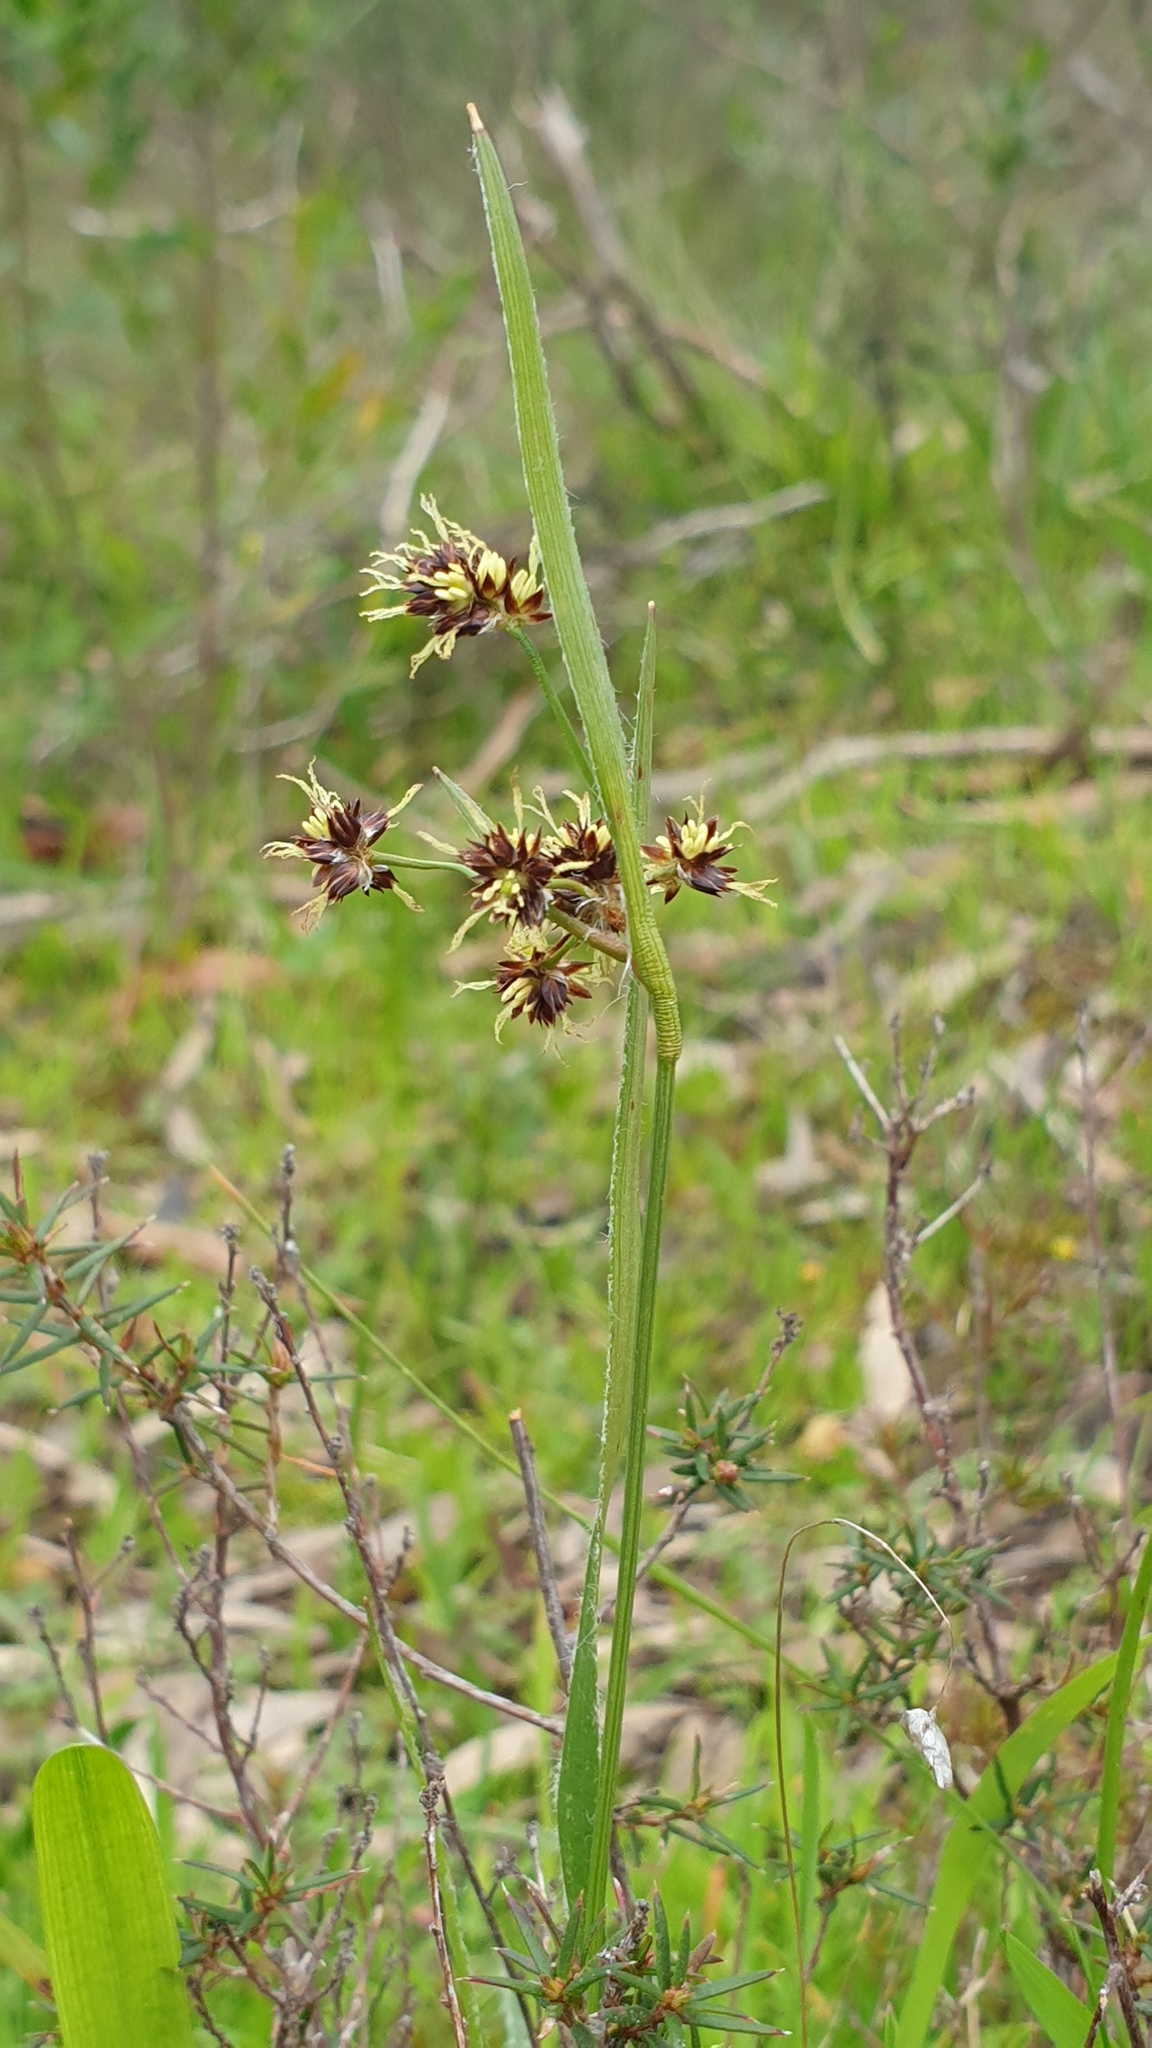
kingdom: Plantae
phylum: Tracheophyta
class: Liliopsida
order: Poales
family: Juncaceae
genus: Luzula
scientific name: Luzula meridionalis
